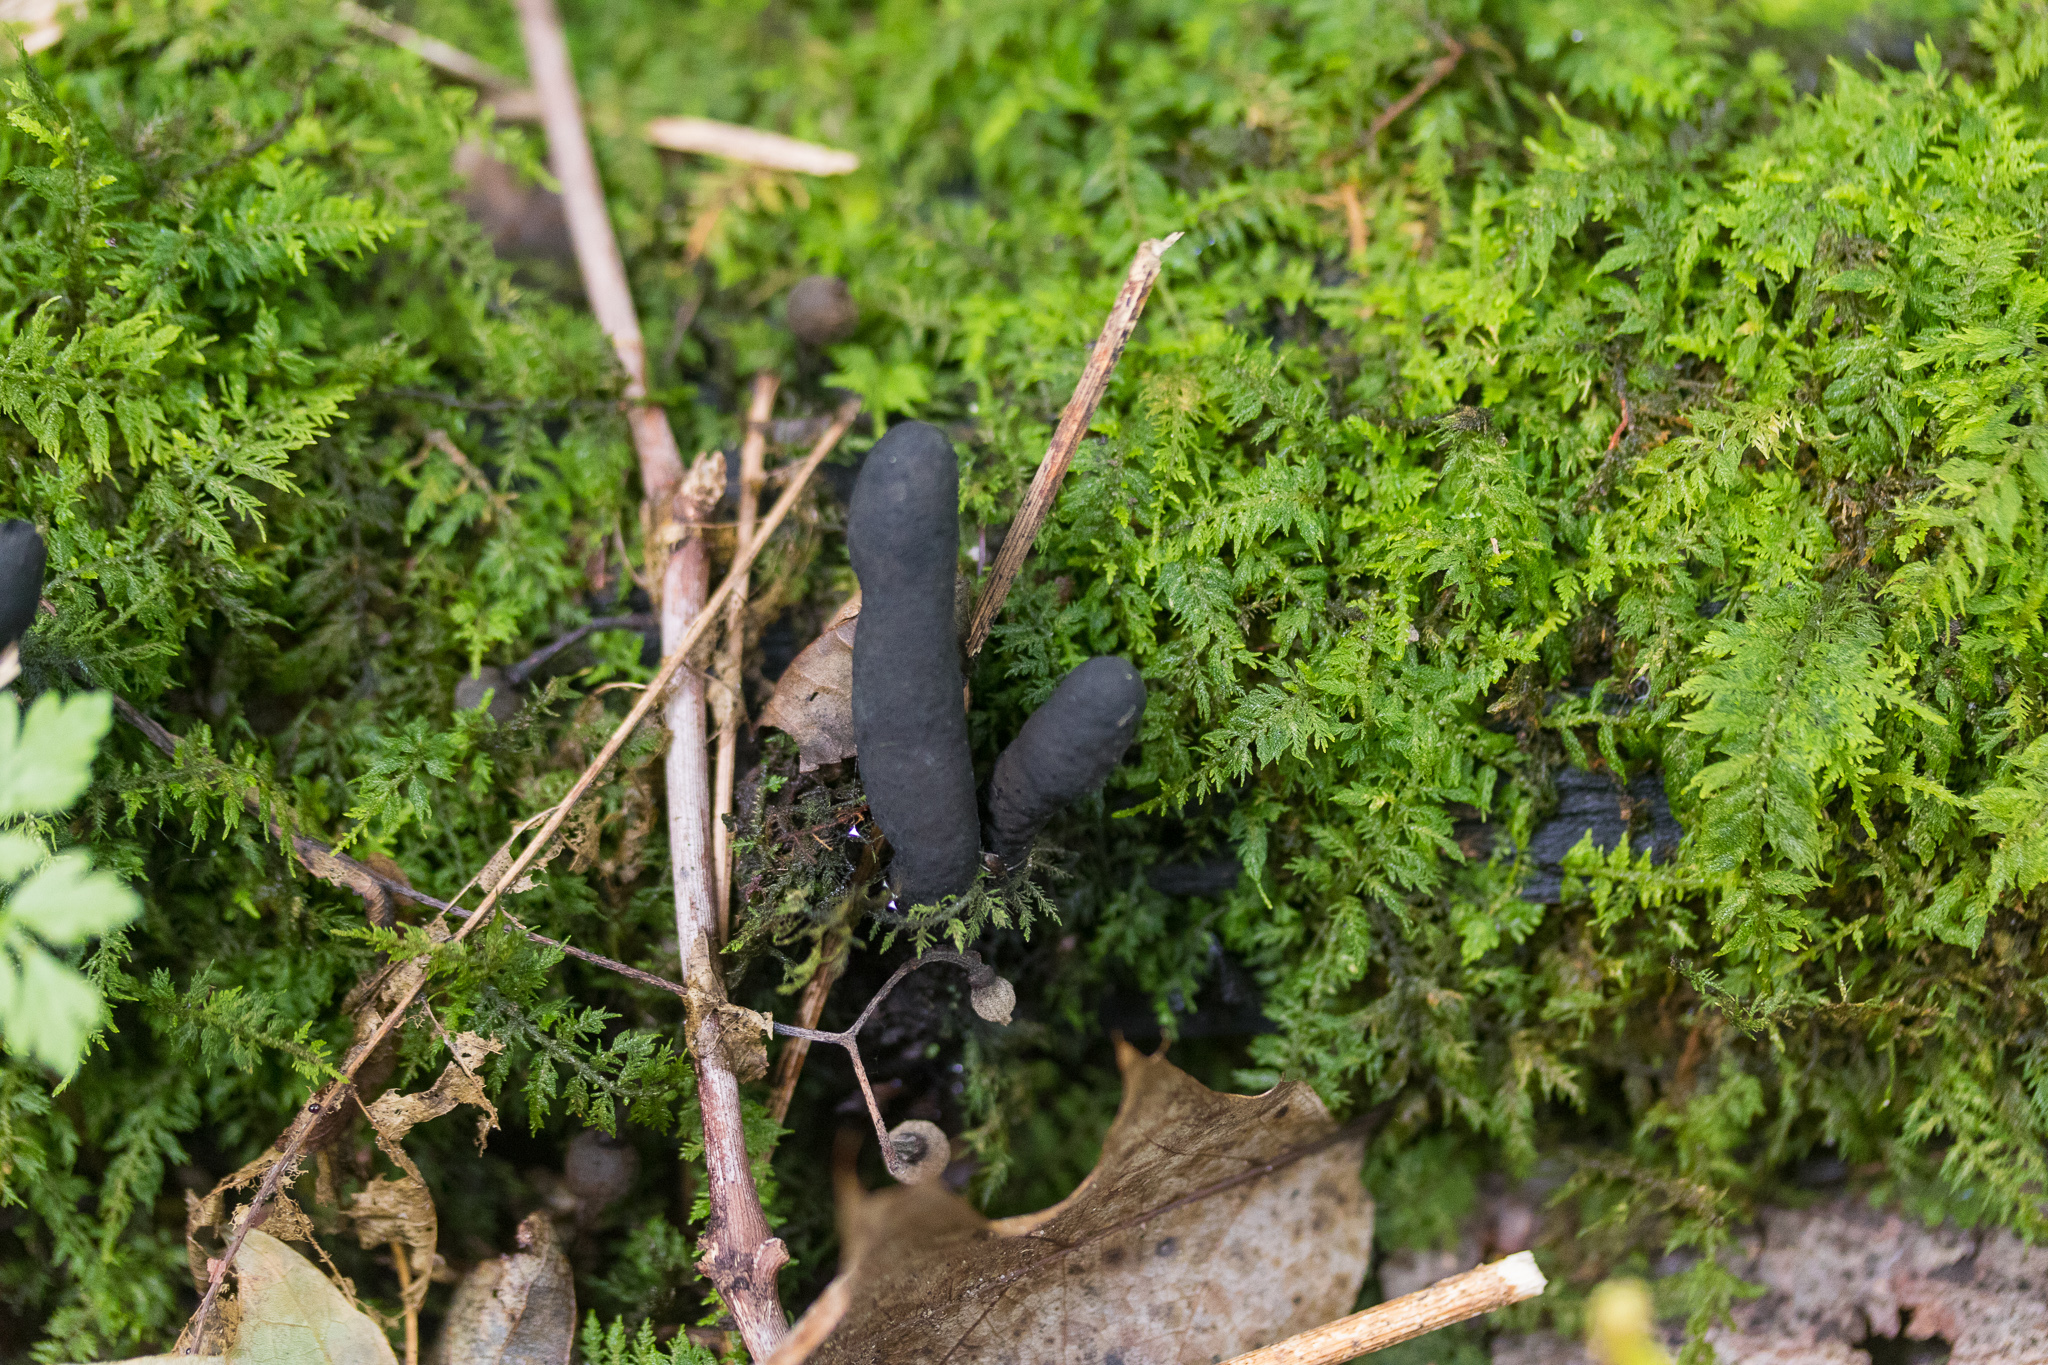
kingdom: Fungi
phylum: Ascomycota
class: Sordariomycetes
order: Xylariales
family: Xylariaceae
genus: Xylaria
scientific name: Xylaria longipes
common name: Dead moll's fingers
